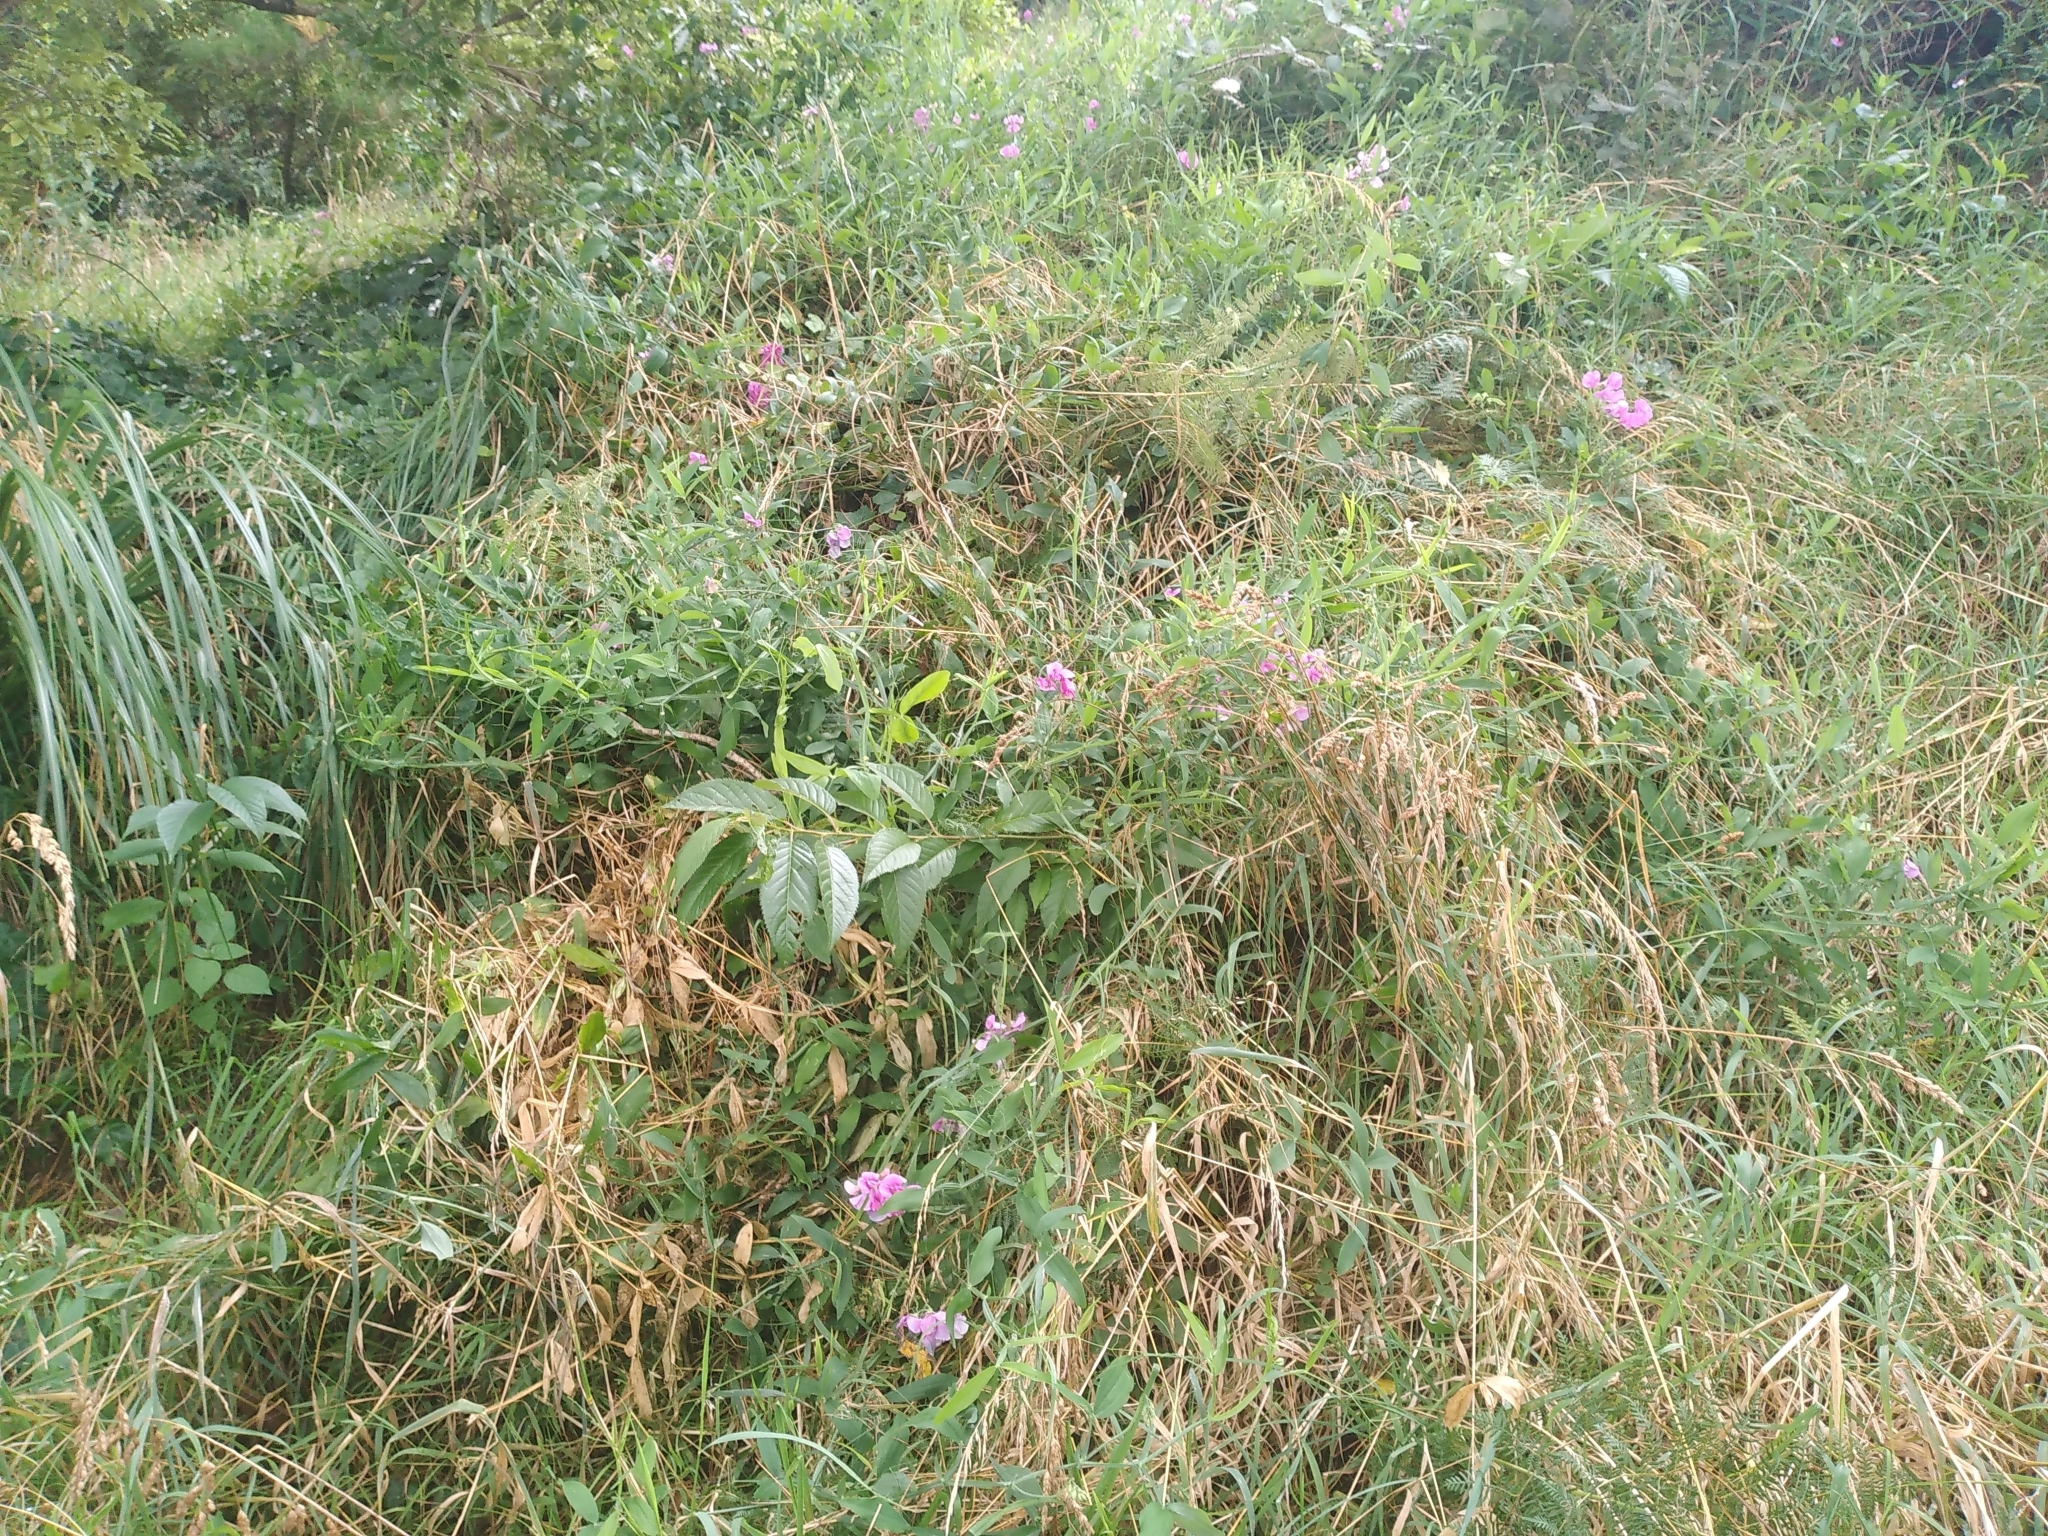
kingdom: Plantae
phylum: Tracheophyta
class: Magnoliopsida
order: Fabales
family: Fabaceae
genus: Lathyrus
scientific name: Lathyrus latifolius
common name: Perennial pea
